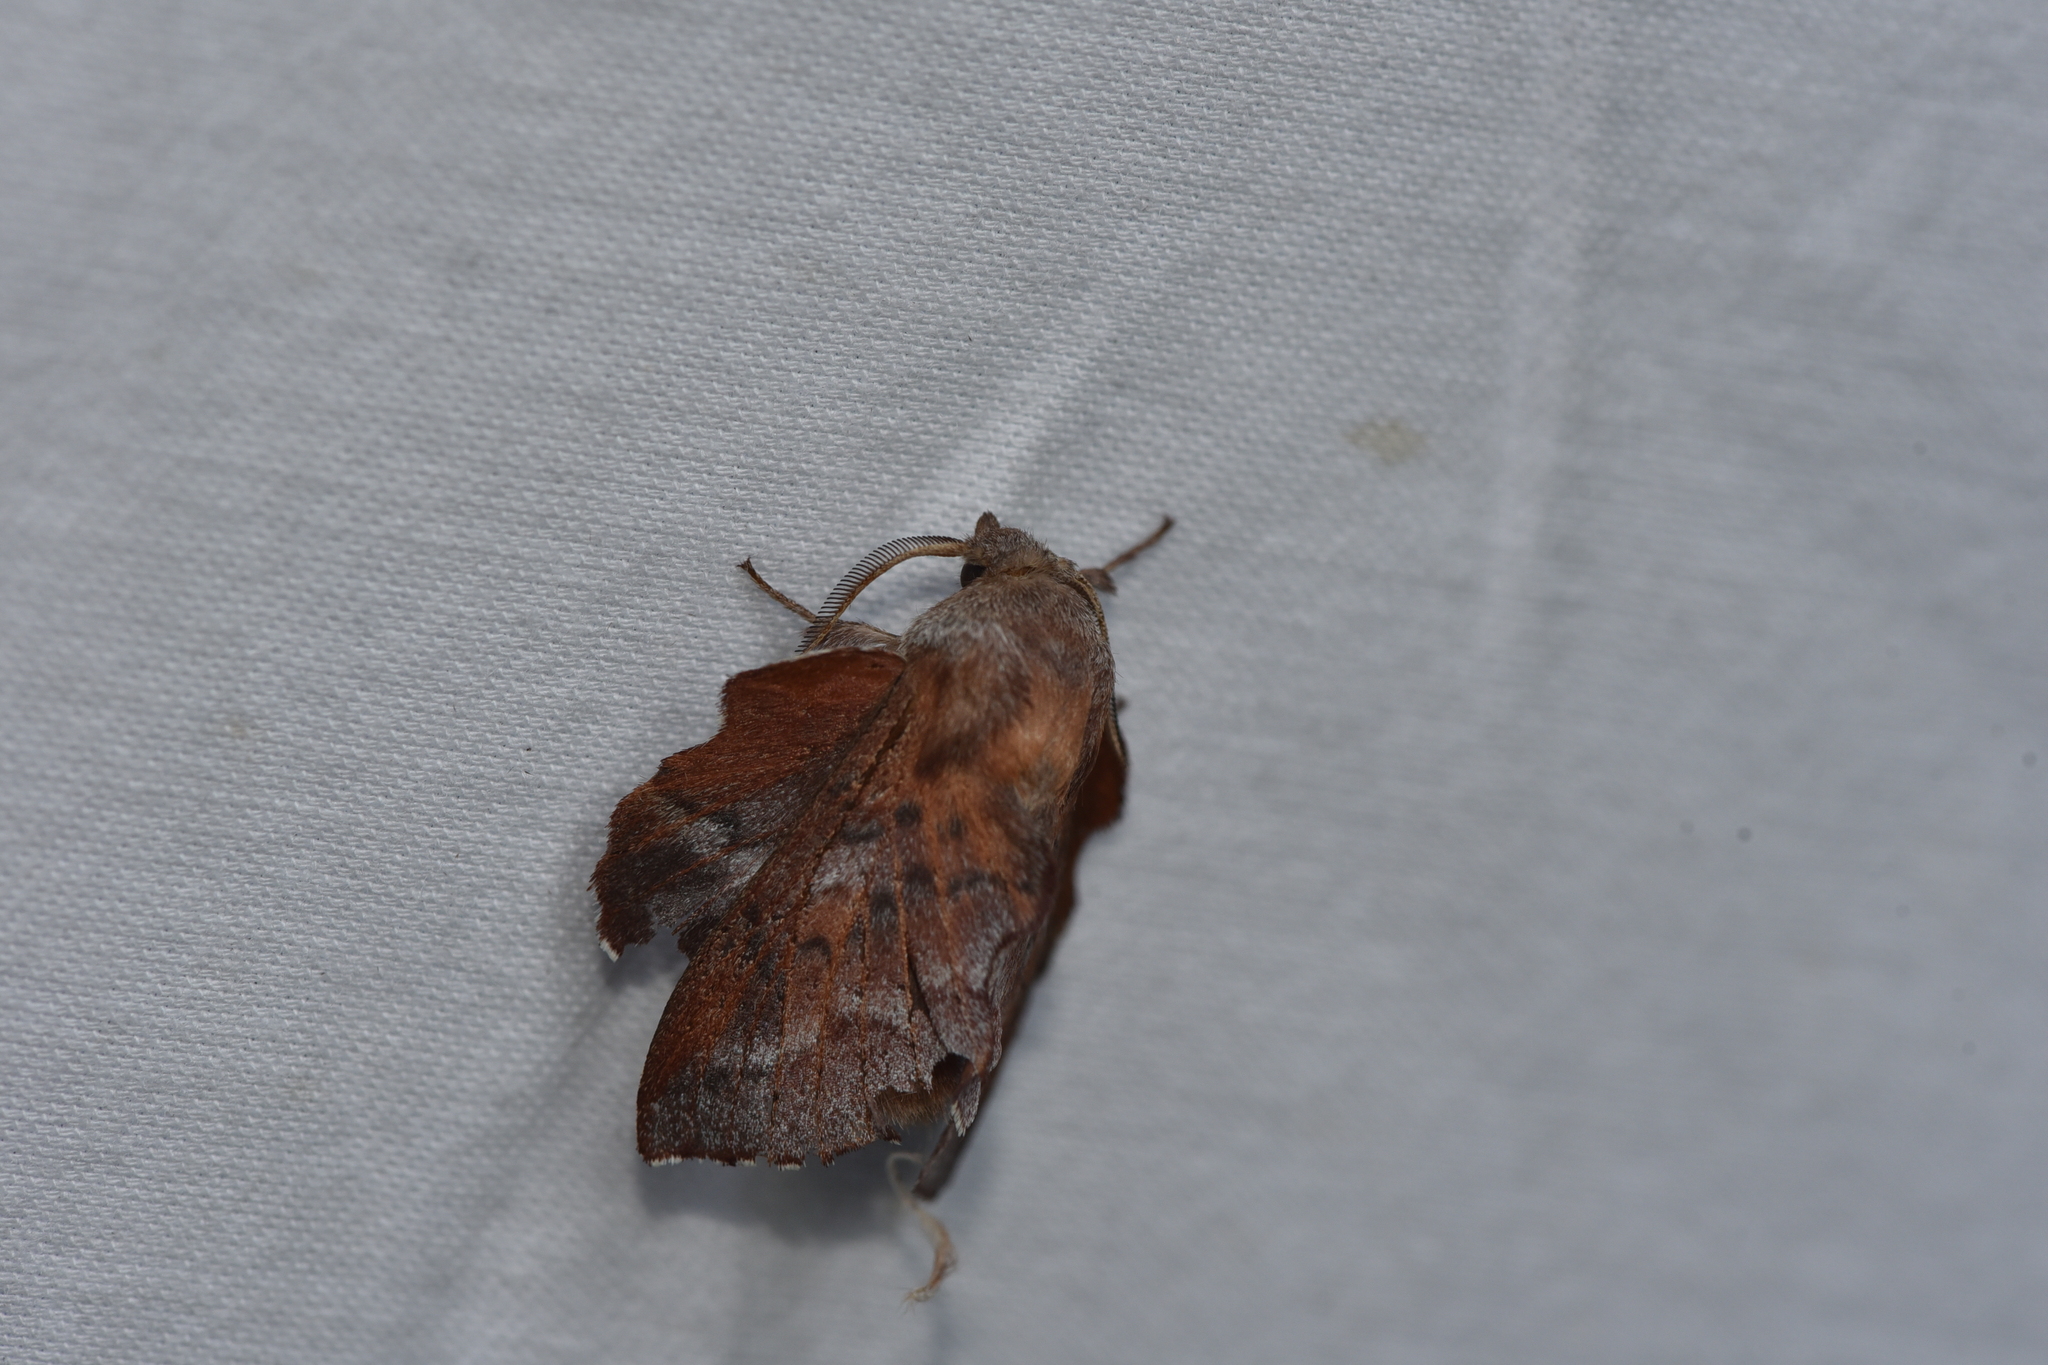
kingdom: Animalia
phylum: Arthropoda
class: Insecta
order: Lepidoptera
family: Lasiocampidae
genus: Phyllodesma
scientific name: Phyllodesma americana
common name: American lappet moth
